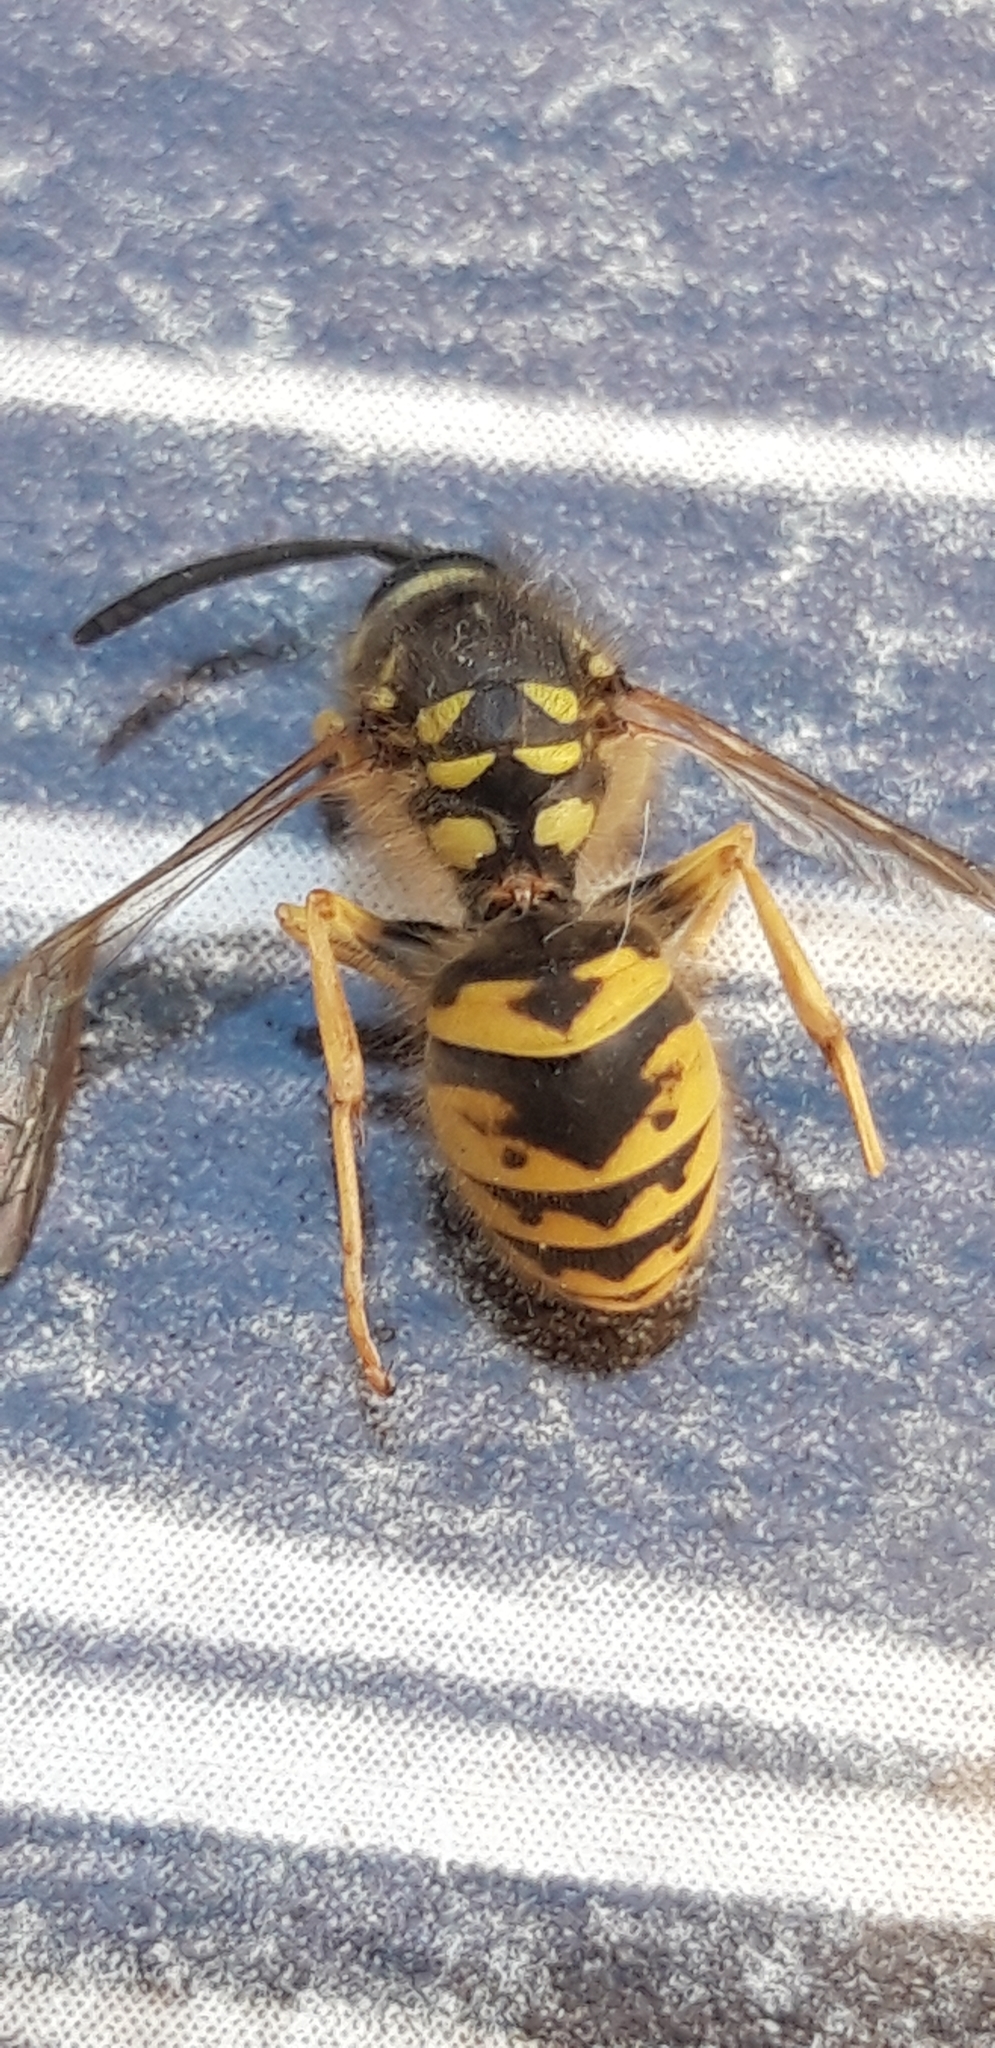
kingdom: Animalia
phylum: Arthropoda
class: Insecta
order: Hymenoptera
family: Vespidae
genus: Vespula
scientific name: Vespula vulgaris
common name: Common wasp
